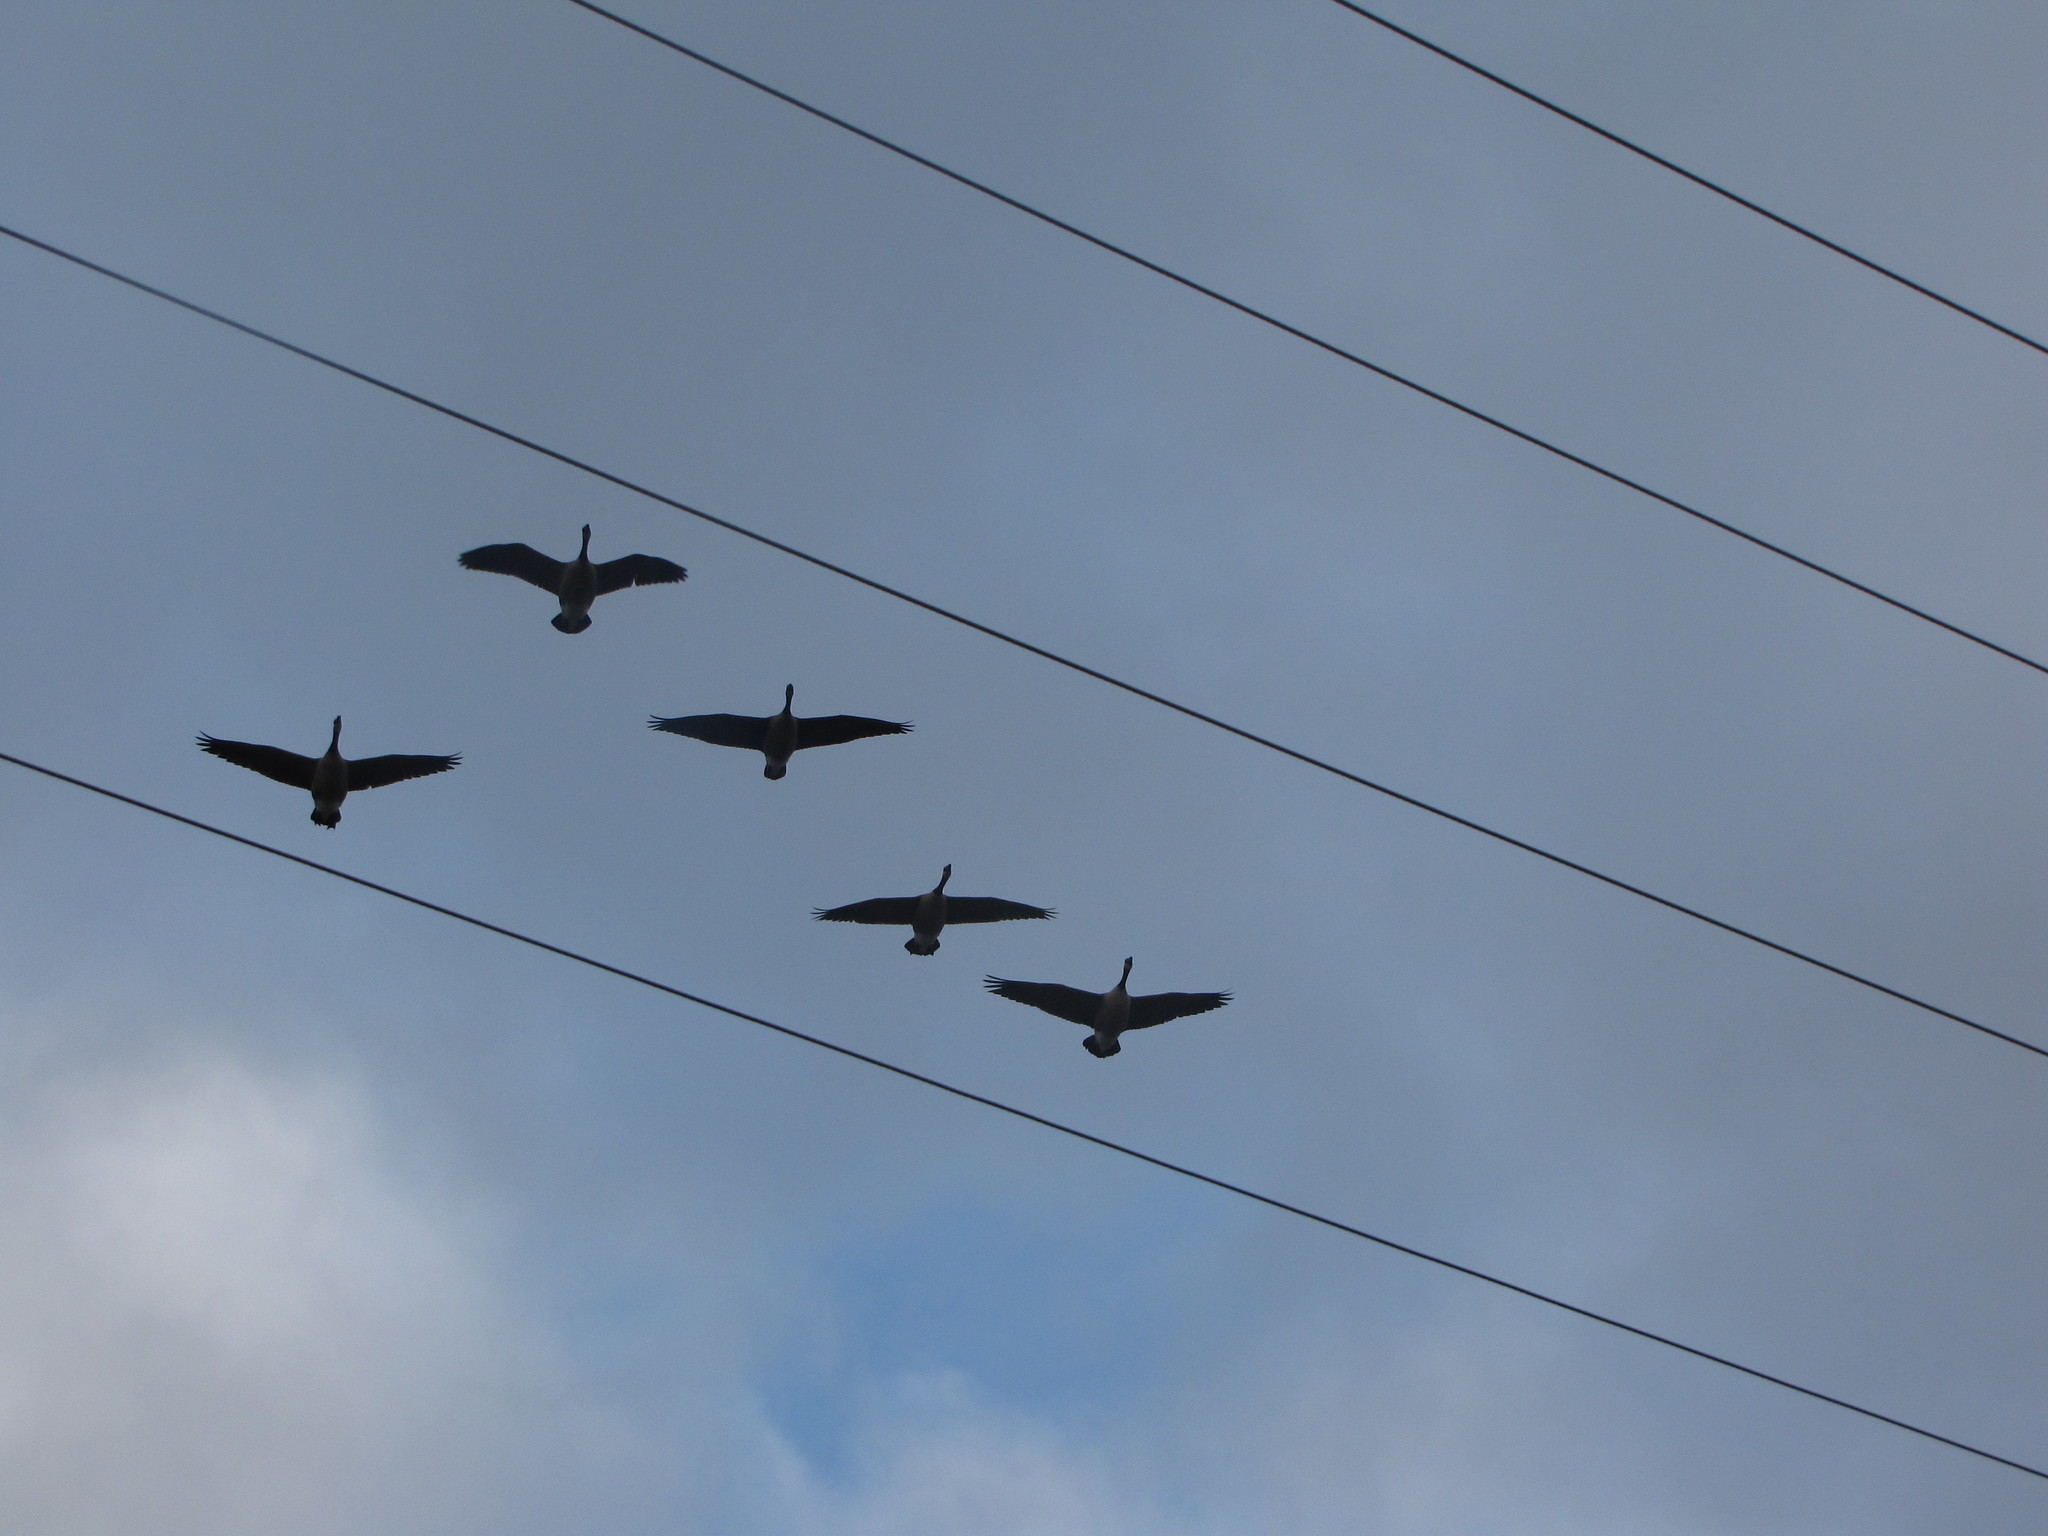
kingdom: Animalia
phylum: Chordata
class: Aves
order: Anseriformes
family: Anatidae
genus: Branta
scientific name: Branta canadensis
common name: Canada goose
